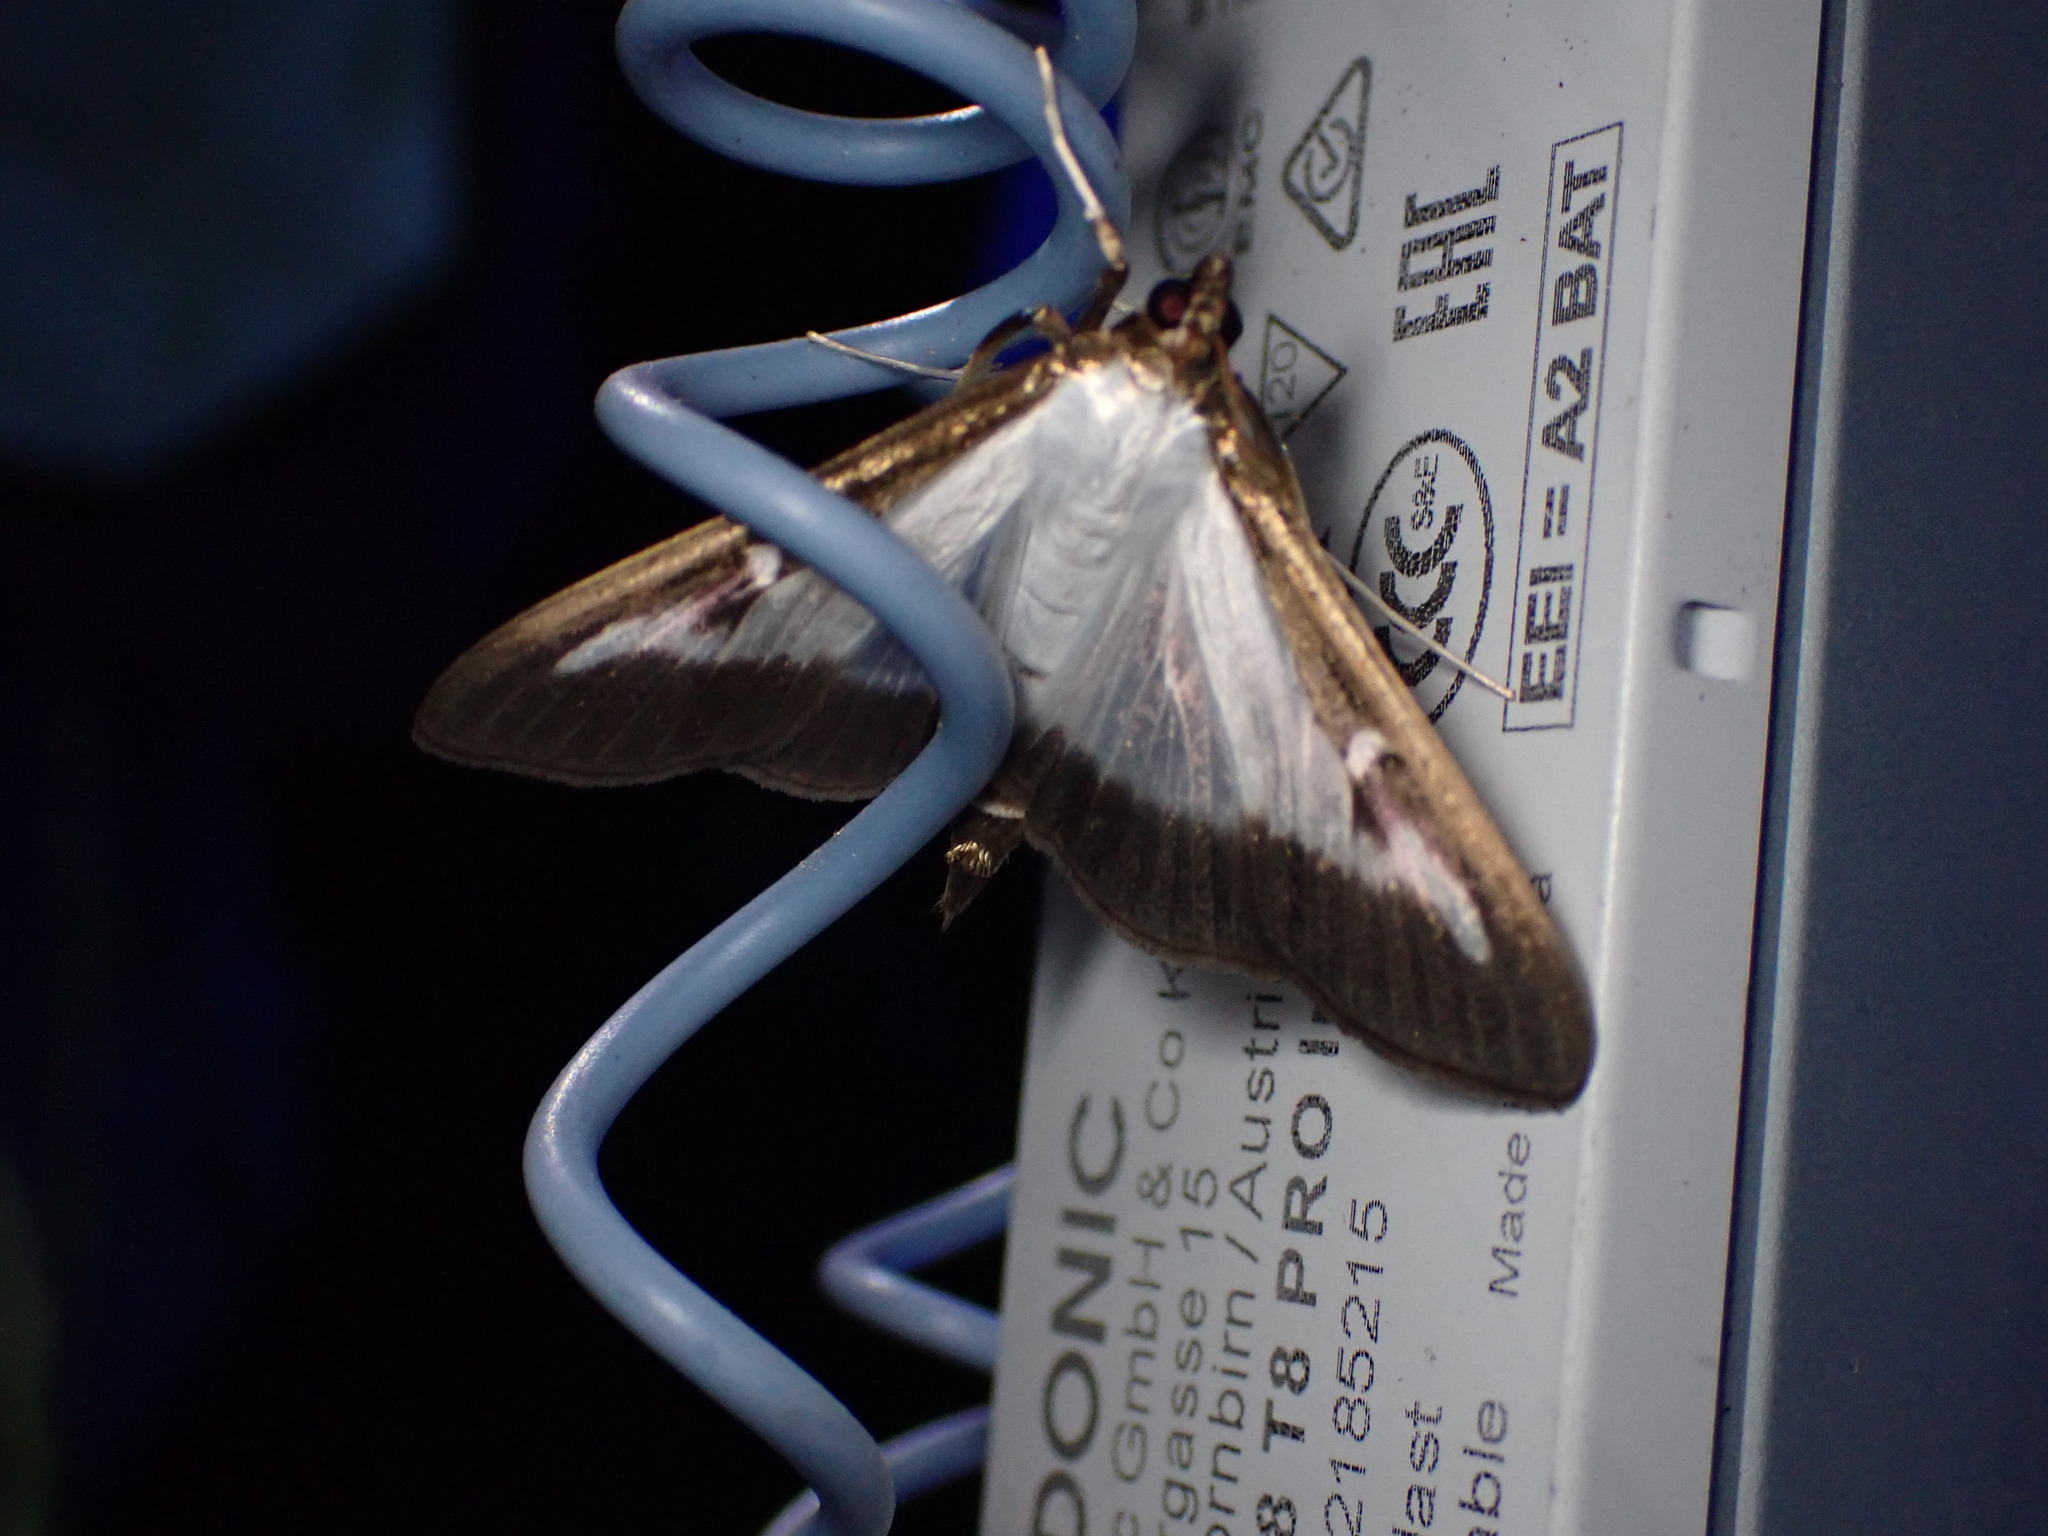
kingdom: Animalia
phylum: Arthropoda
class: Insecta
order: Lepidoptera
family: Crambidae
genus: Cydalima
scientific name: Cydalima perspectalis
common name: Box tree moth
